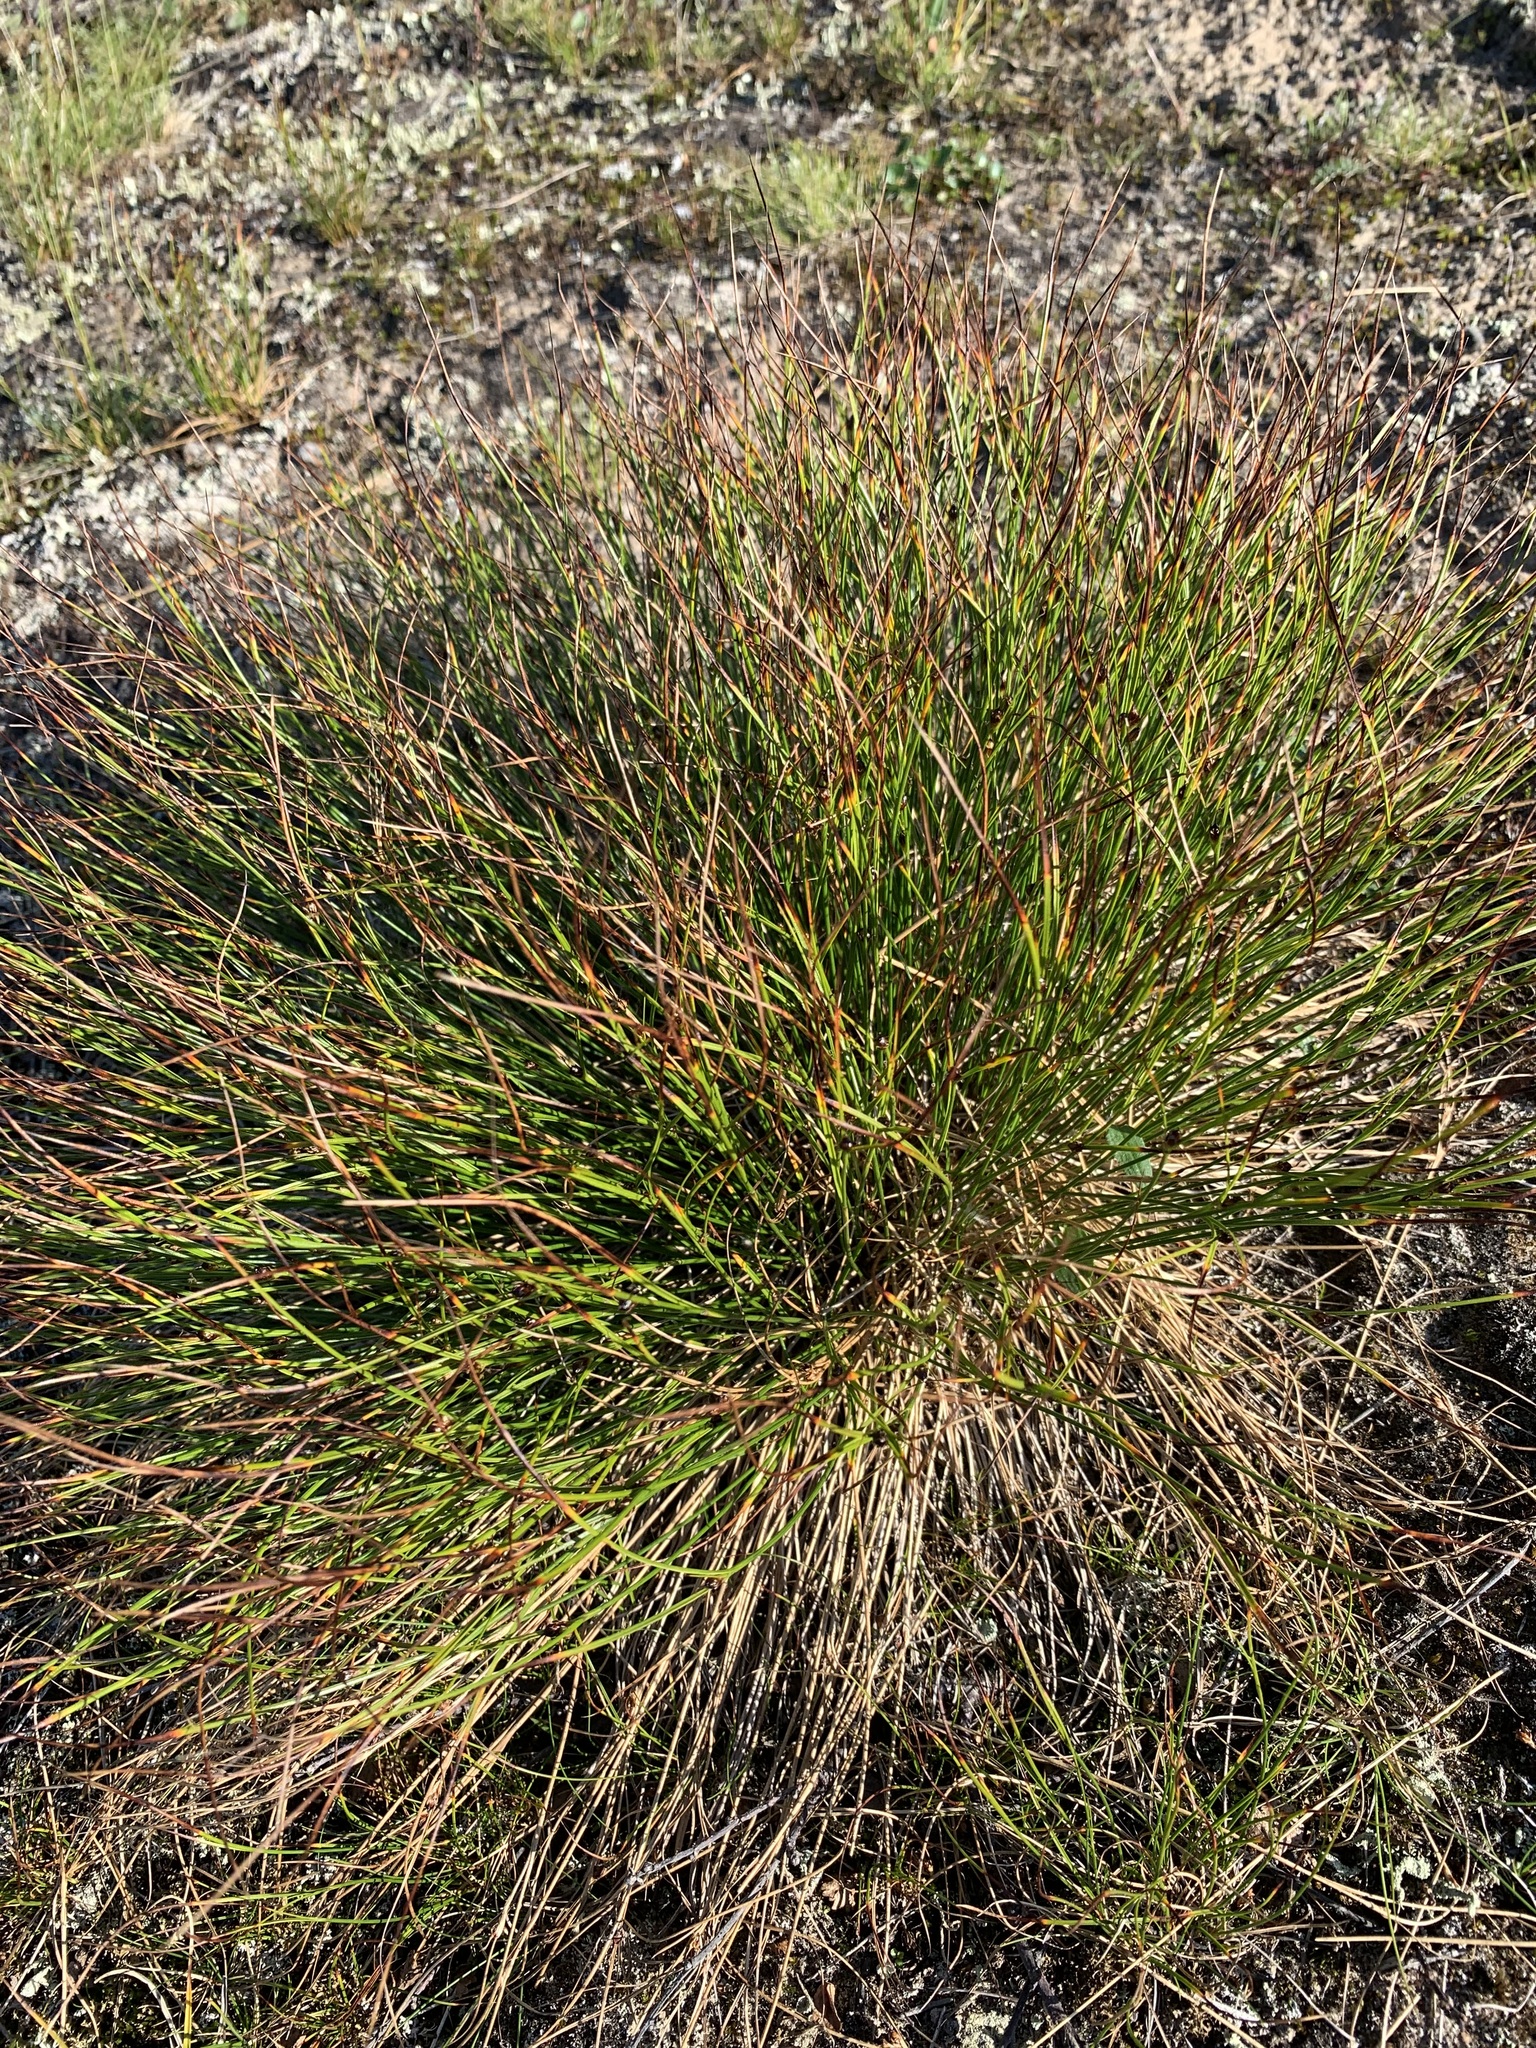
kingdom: Plantae
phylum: Tracheophyta
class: Liliopsida
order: Poales
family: Juncaceae
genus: Oreojuncus
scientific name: Oreojuncus trifidus
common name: Highland rush
